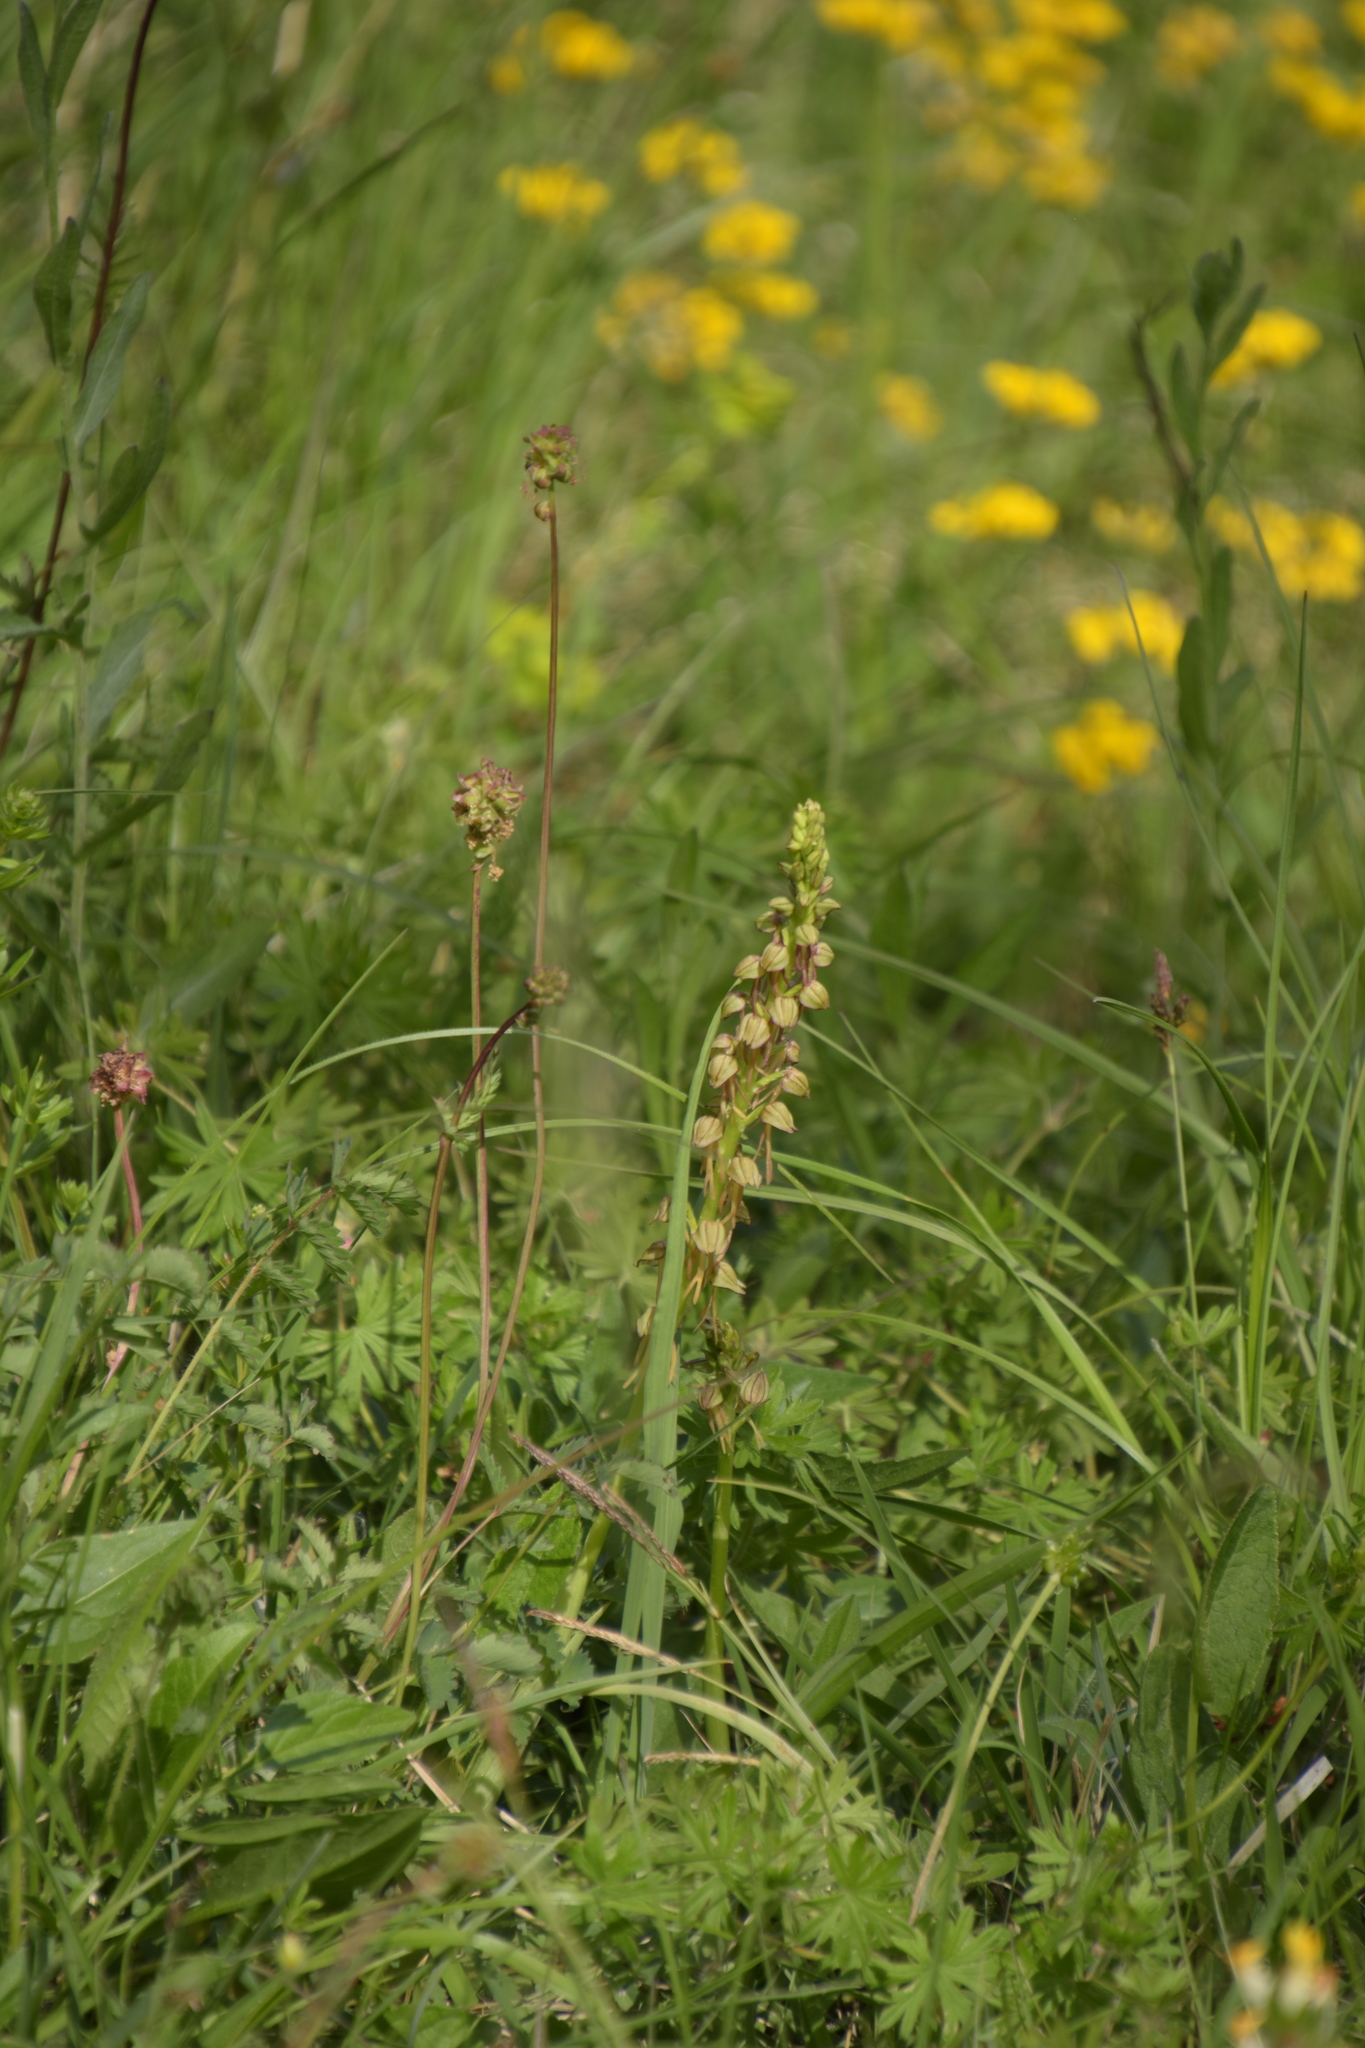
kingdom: Plantae
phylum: Tracheophyta
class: Liliopsida
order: Asparagales
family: Orchidaceae
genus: Orchis
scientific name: Orchis anthropophora
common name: Man orchid
